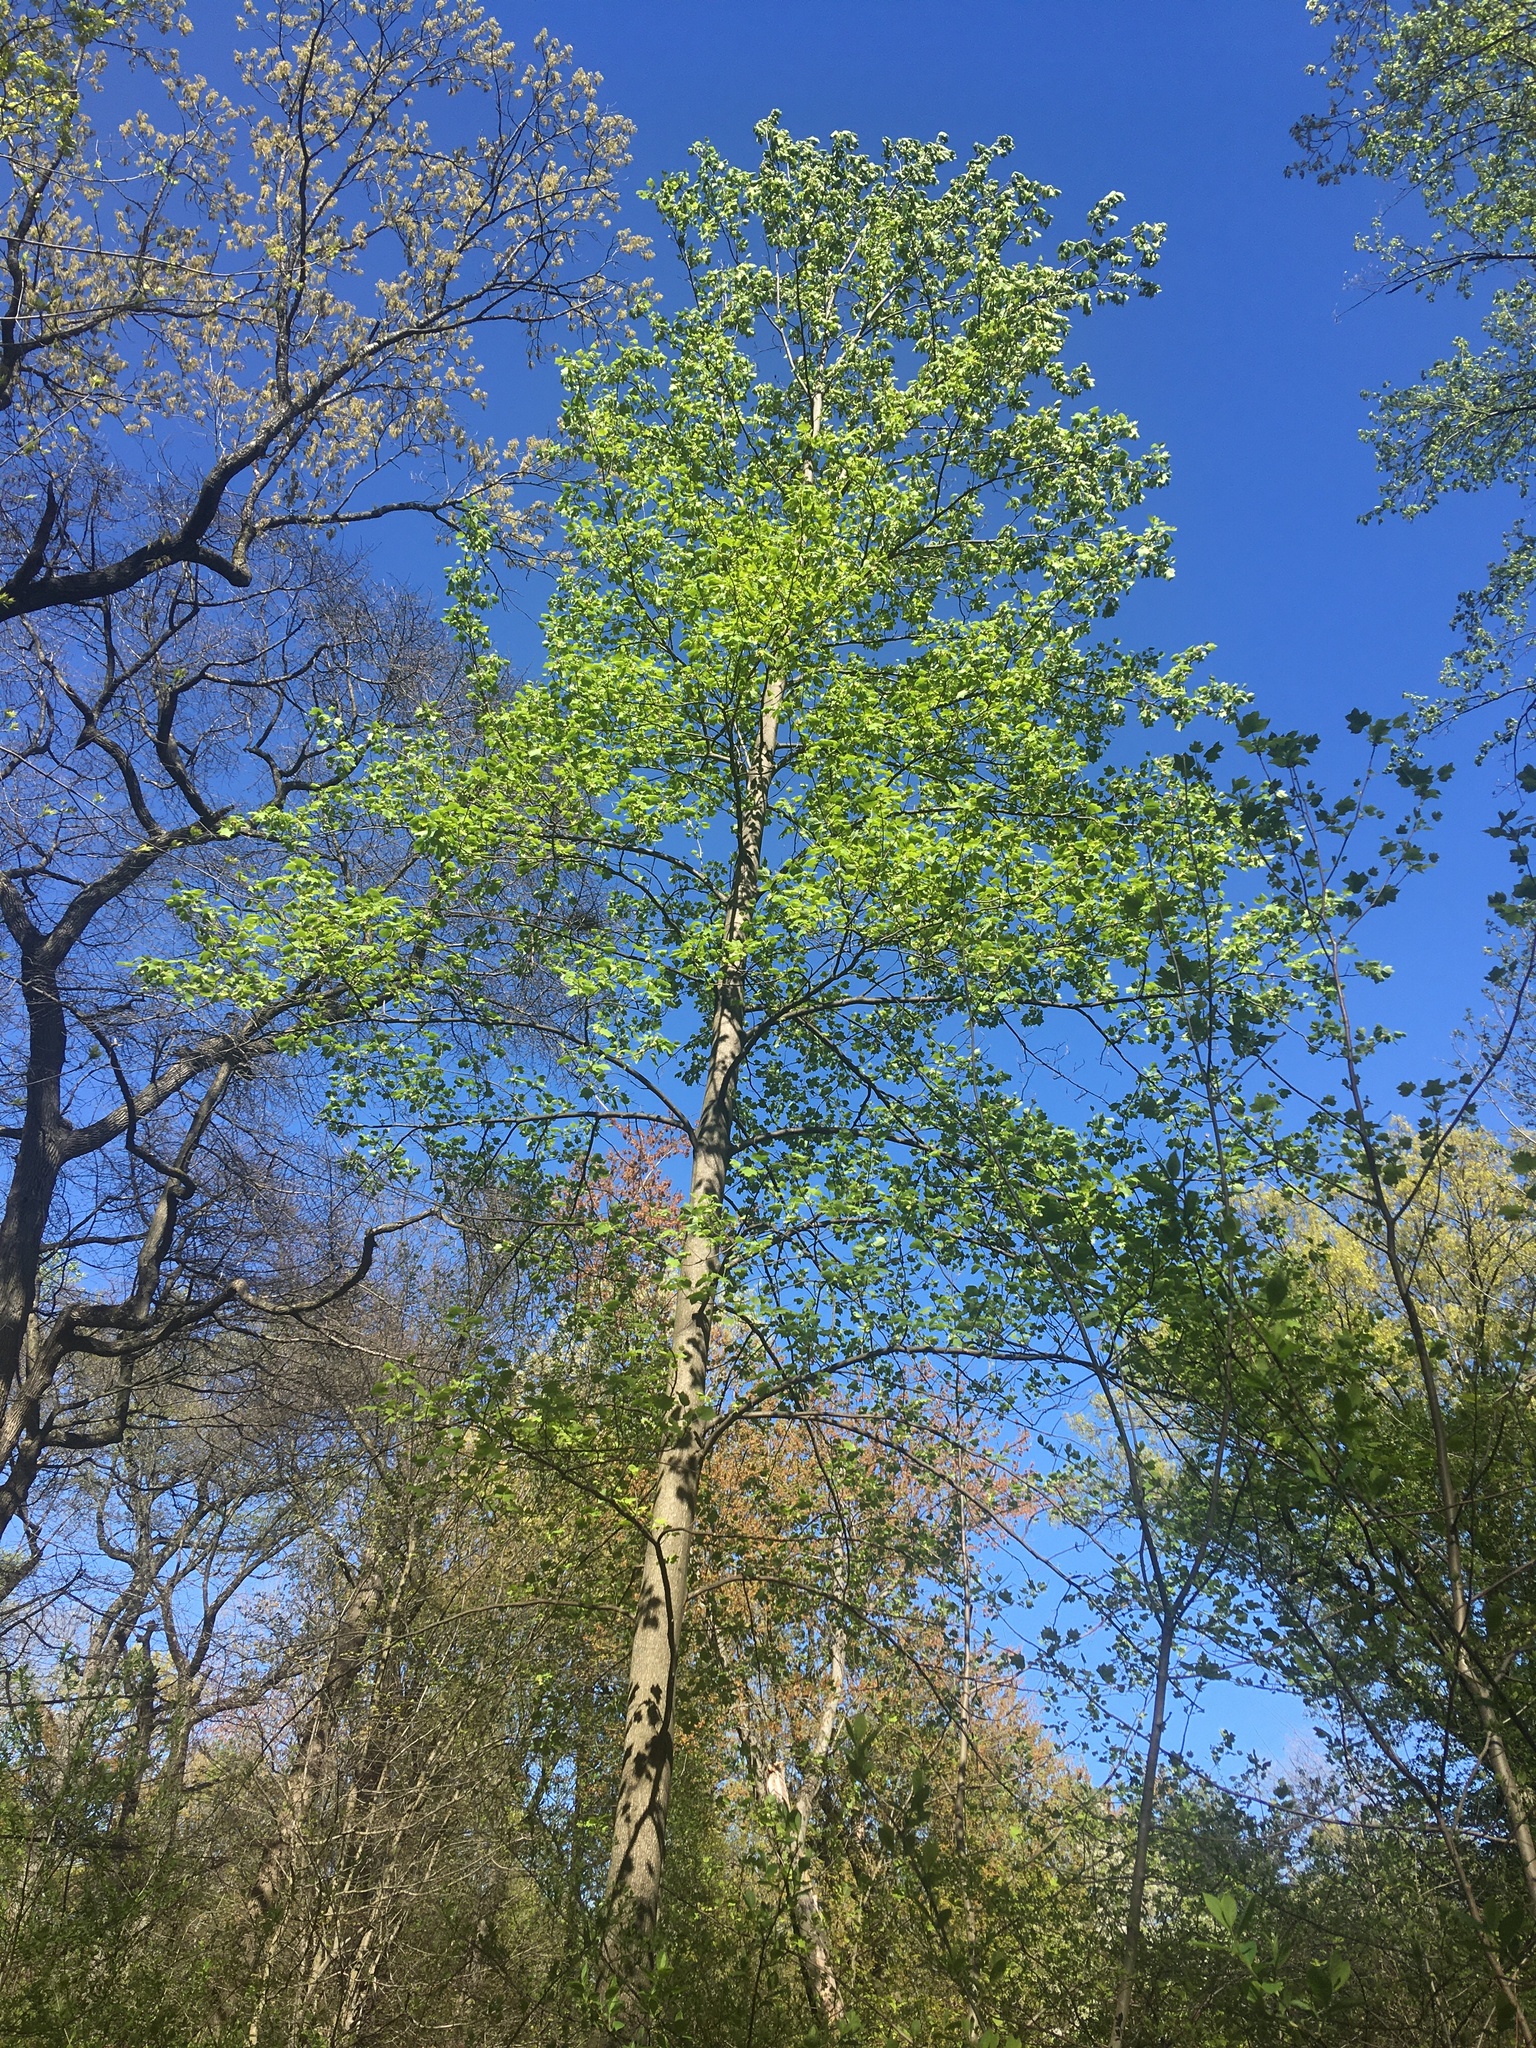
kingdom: Plantae
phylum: Tracheophyta
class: Magnoliopsida
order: Magnoliales
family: Magnoliaceae
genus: Liriodendron
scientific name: Liriodendron tulipifera
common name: Tulip tree
